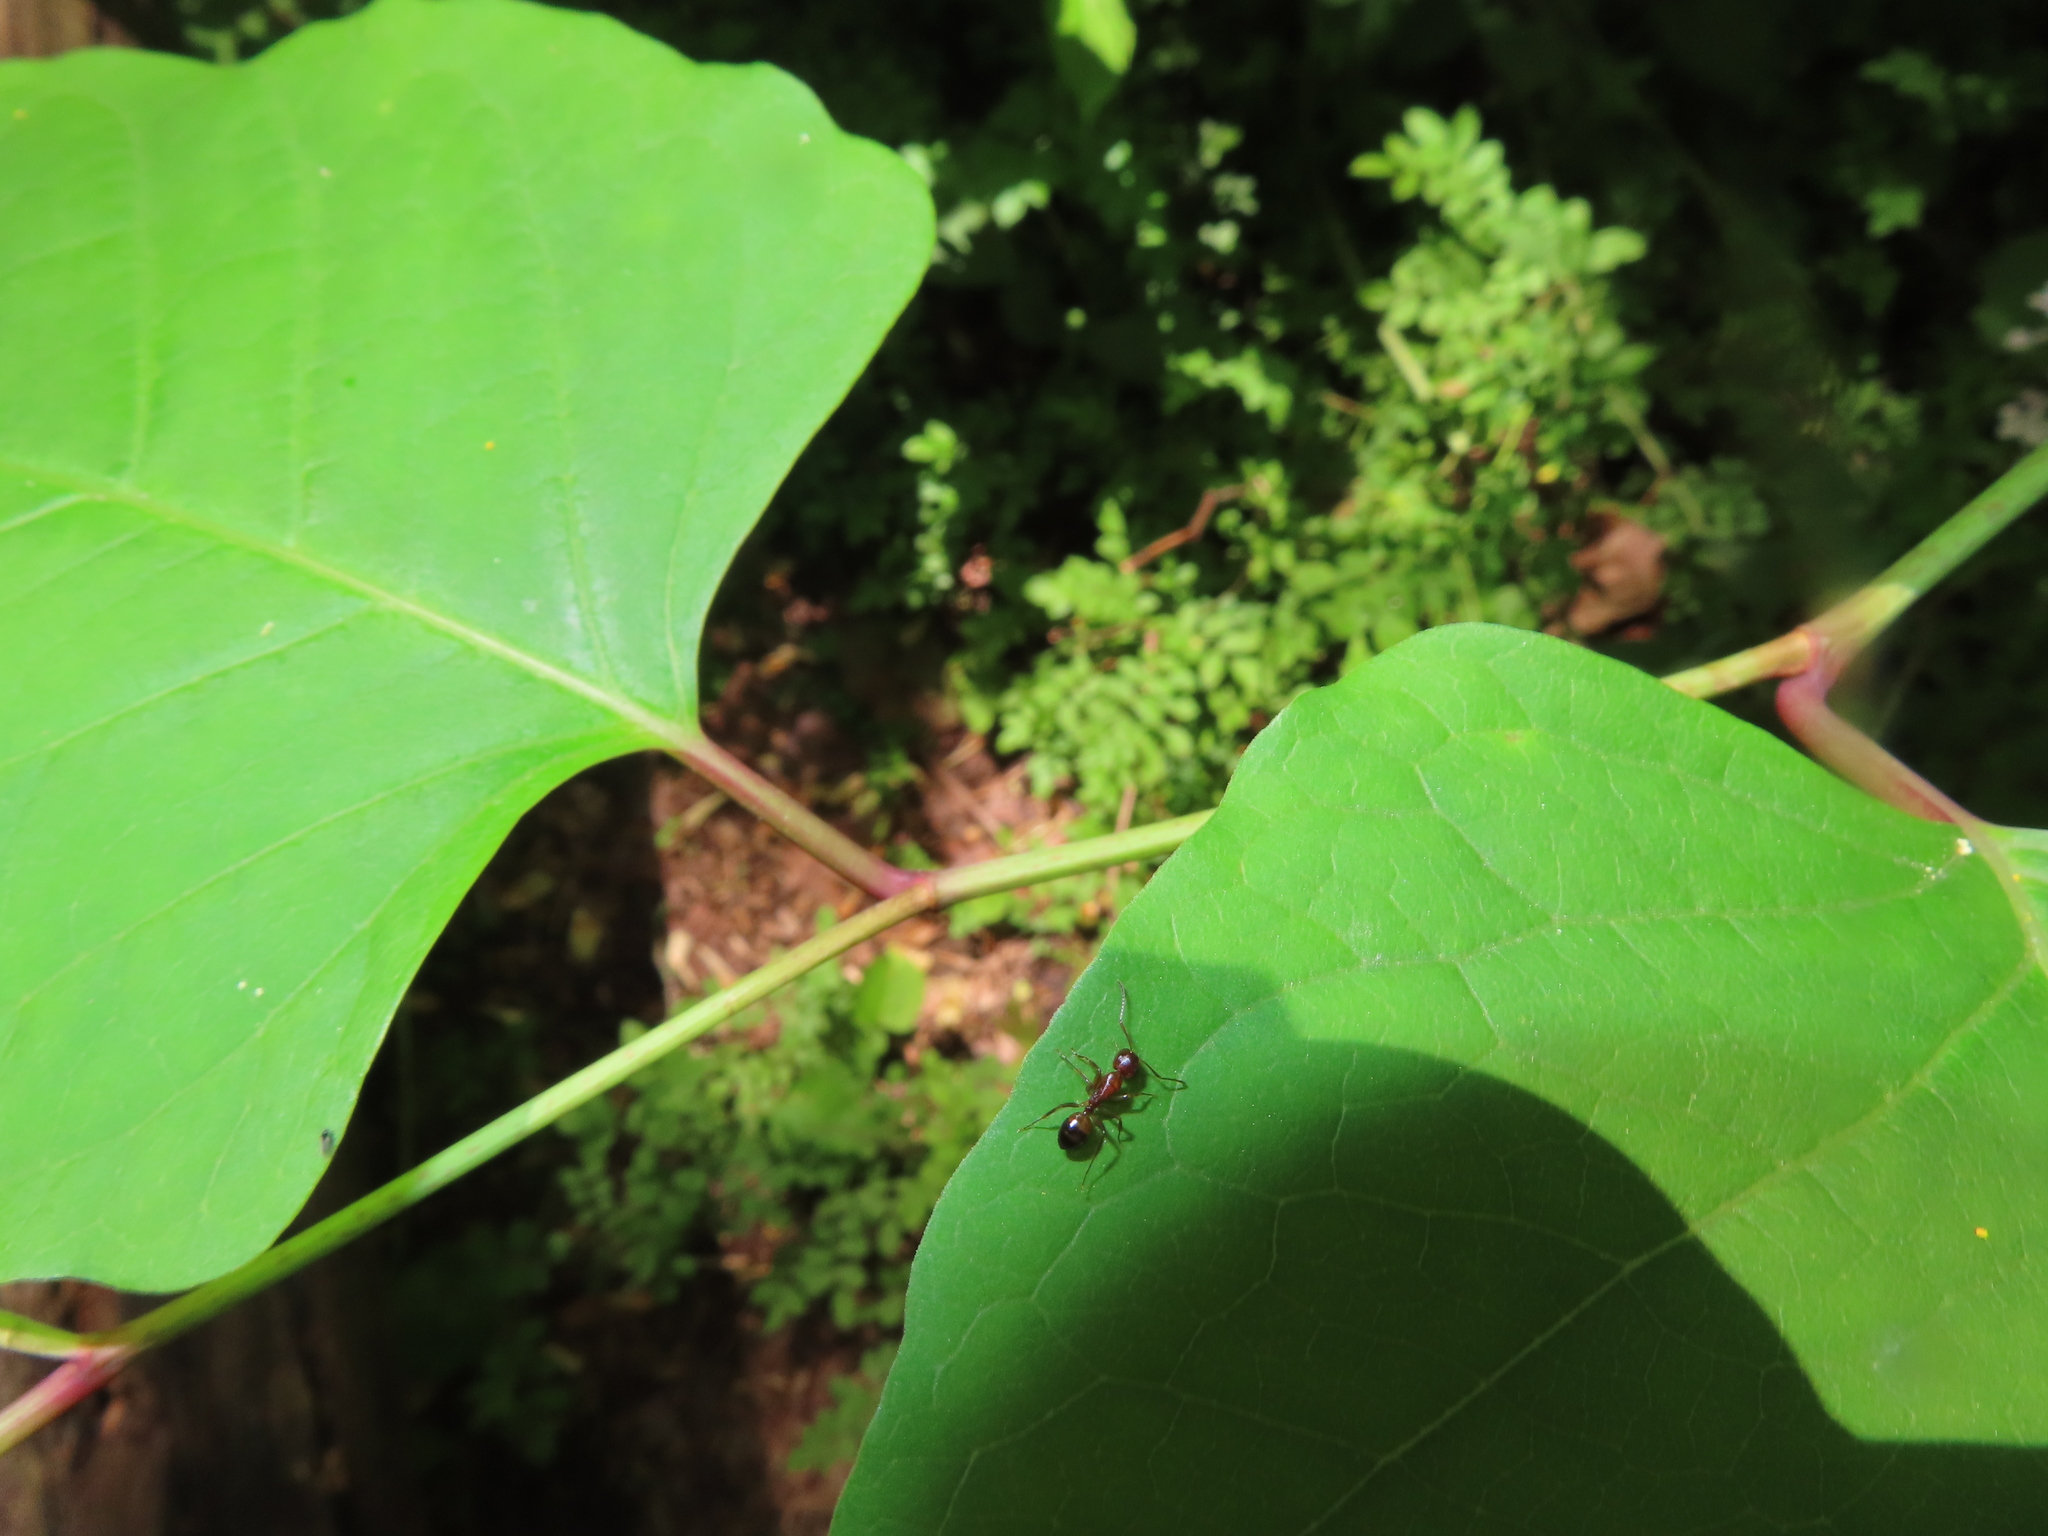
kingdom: Animalia
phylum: Arthropoda
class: Insecta
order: Hymenoptera
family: Formicidae
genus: Camponotus
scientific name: Camponotus subbarbatus
